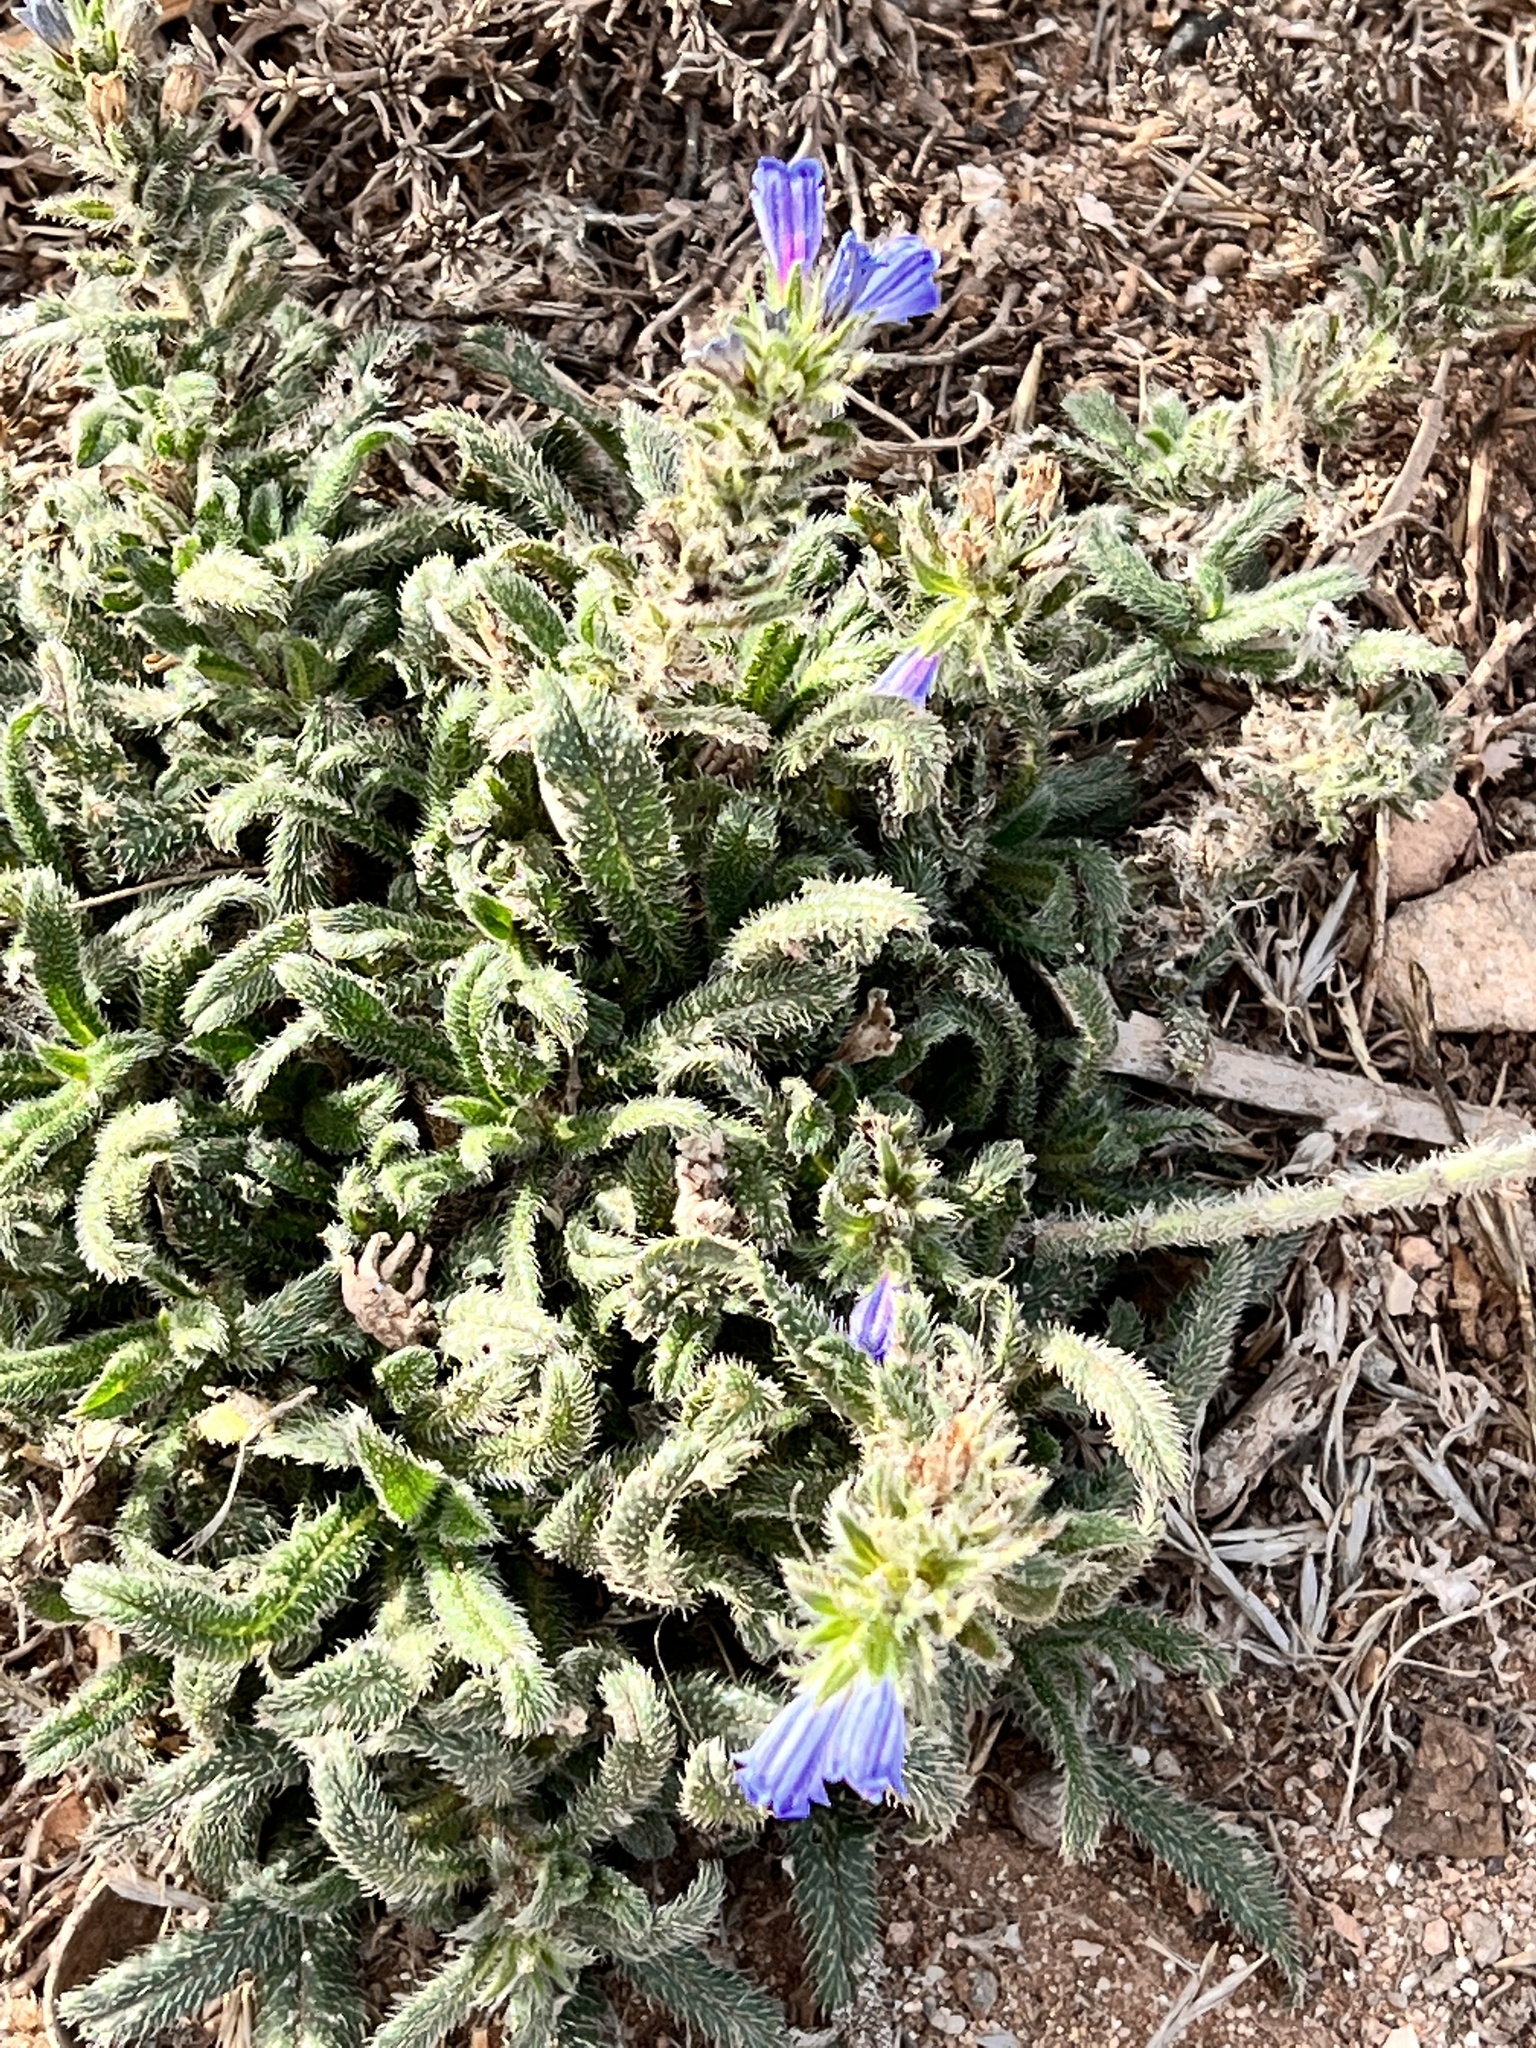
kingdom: Plantae
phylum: Tracheophyta
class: Magnoliopsida
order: Boraginales
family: Boraginaceae
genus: Echium
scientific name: Echium tenue
